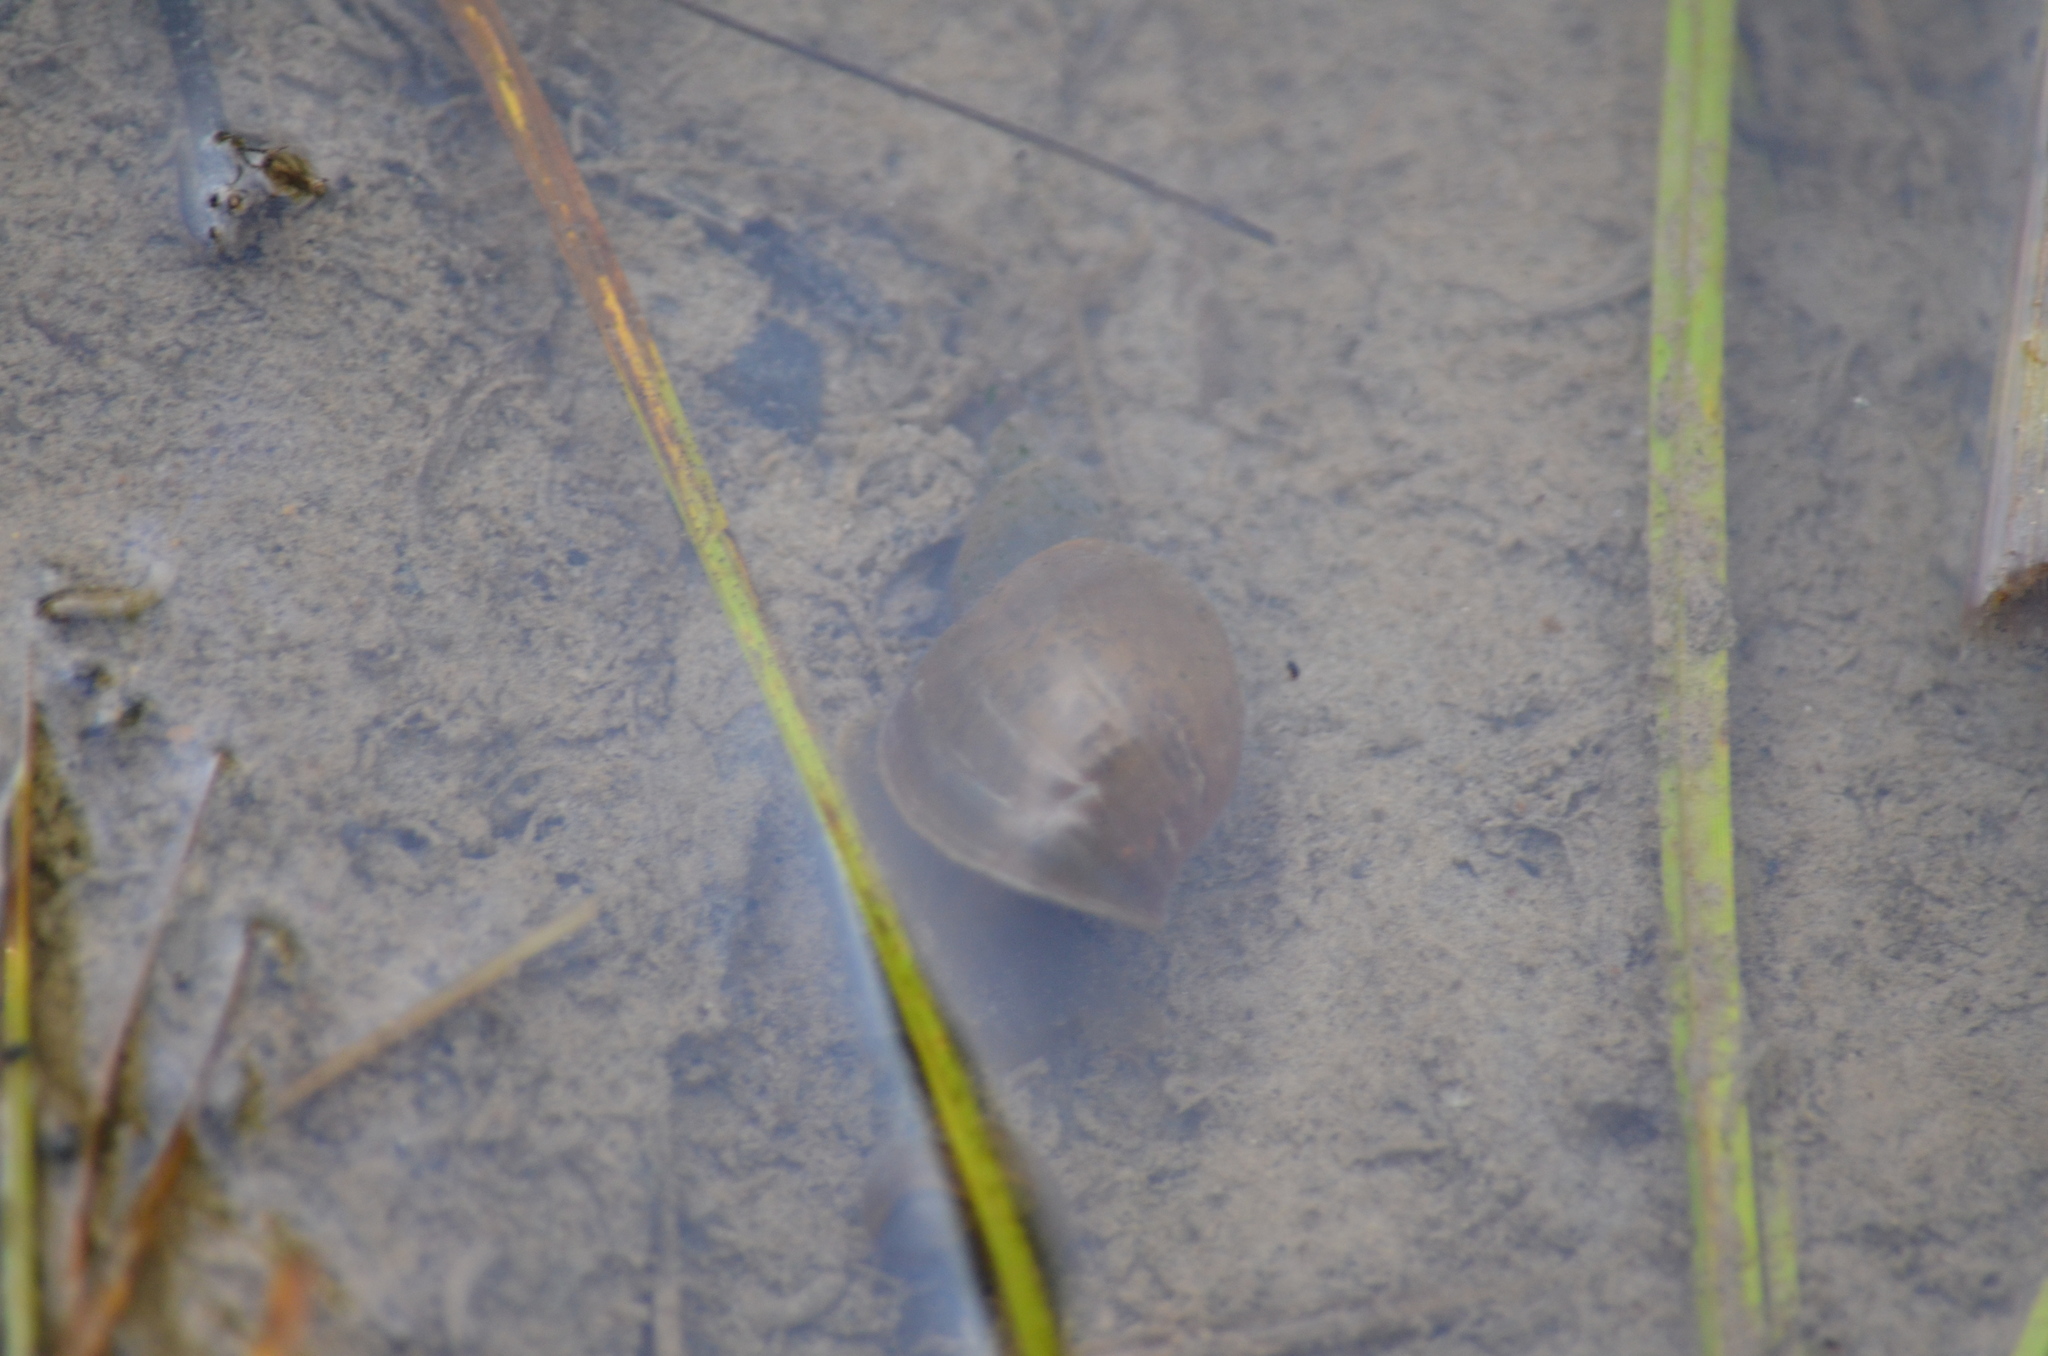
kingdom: Animalia
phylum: Mollusca
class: Gastropoda
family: Lymnaeidae
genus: Lymnaea
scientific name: Lymnaea stagnalis
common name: Great pond snail
